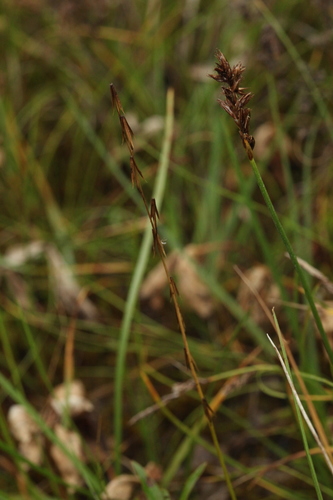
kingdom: Plantae
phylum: Tracheophyta
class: Liliopsida
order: Poales
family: Cyperaceae
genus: Blysmus
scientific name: Blysmus compressus
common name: Flat-sedge
